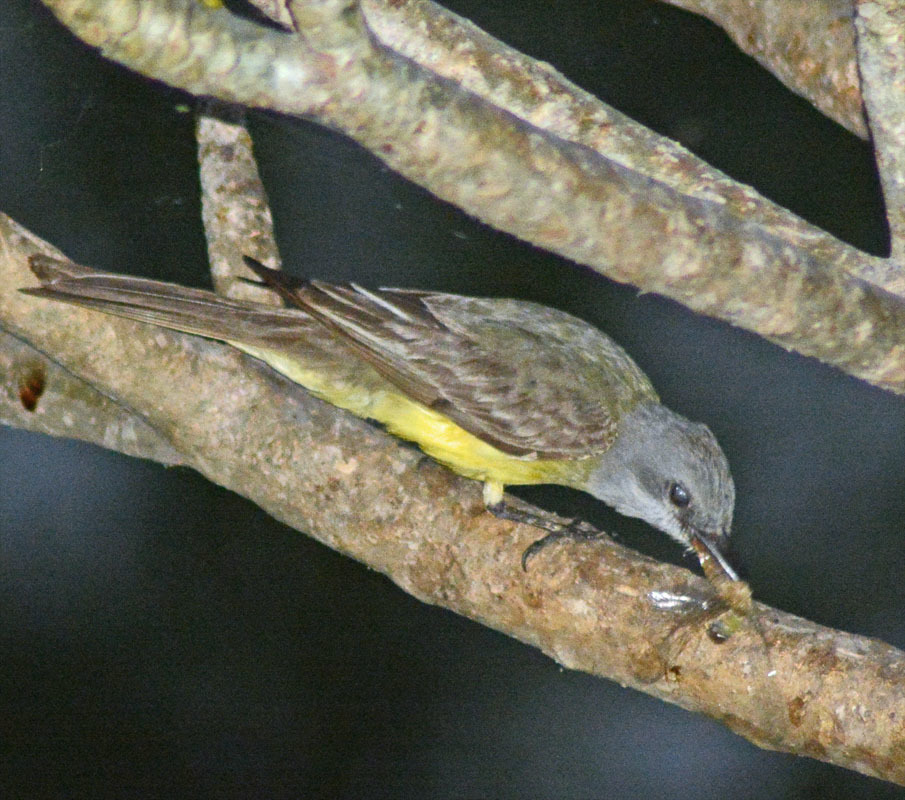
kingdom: Animalia
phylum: Chordata
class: Aves
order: Passeriformes
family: Tyrannidae
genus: Tyrannus
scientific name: Tyrannus melancholicus
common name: Tropical kingbird
